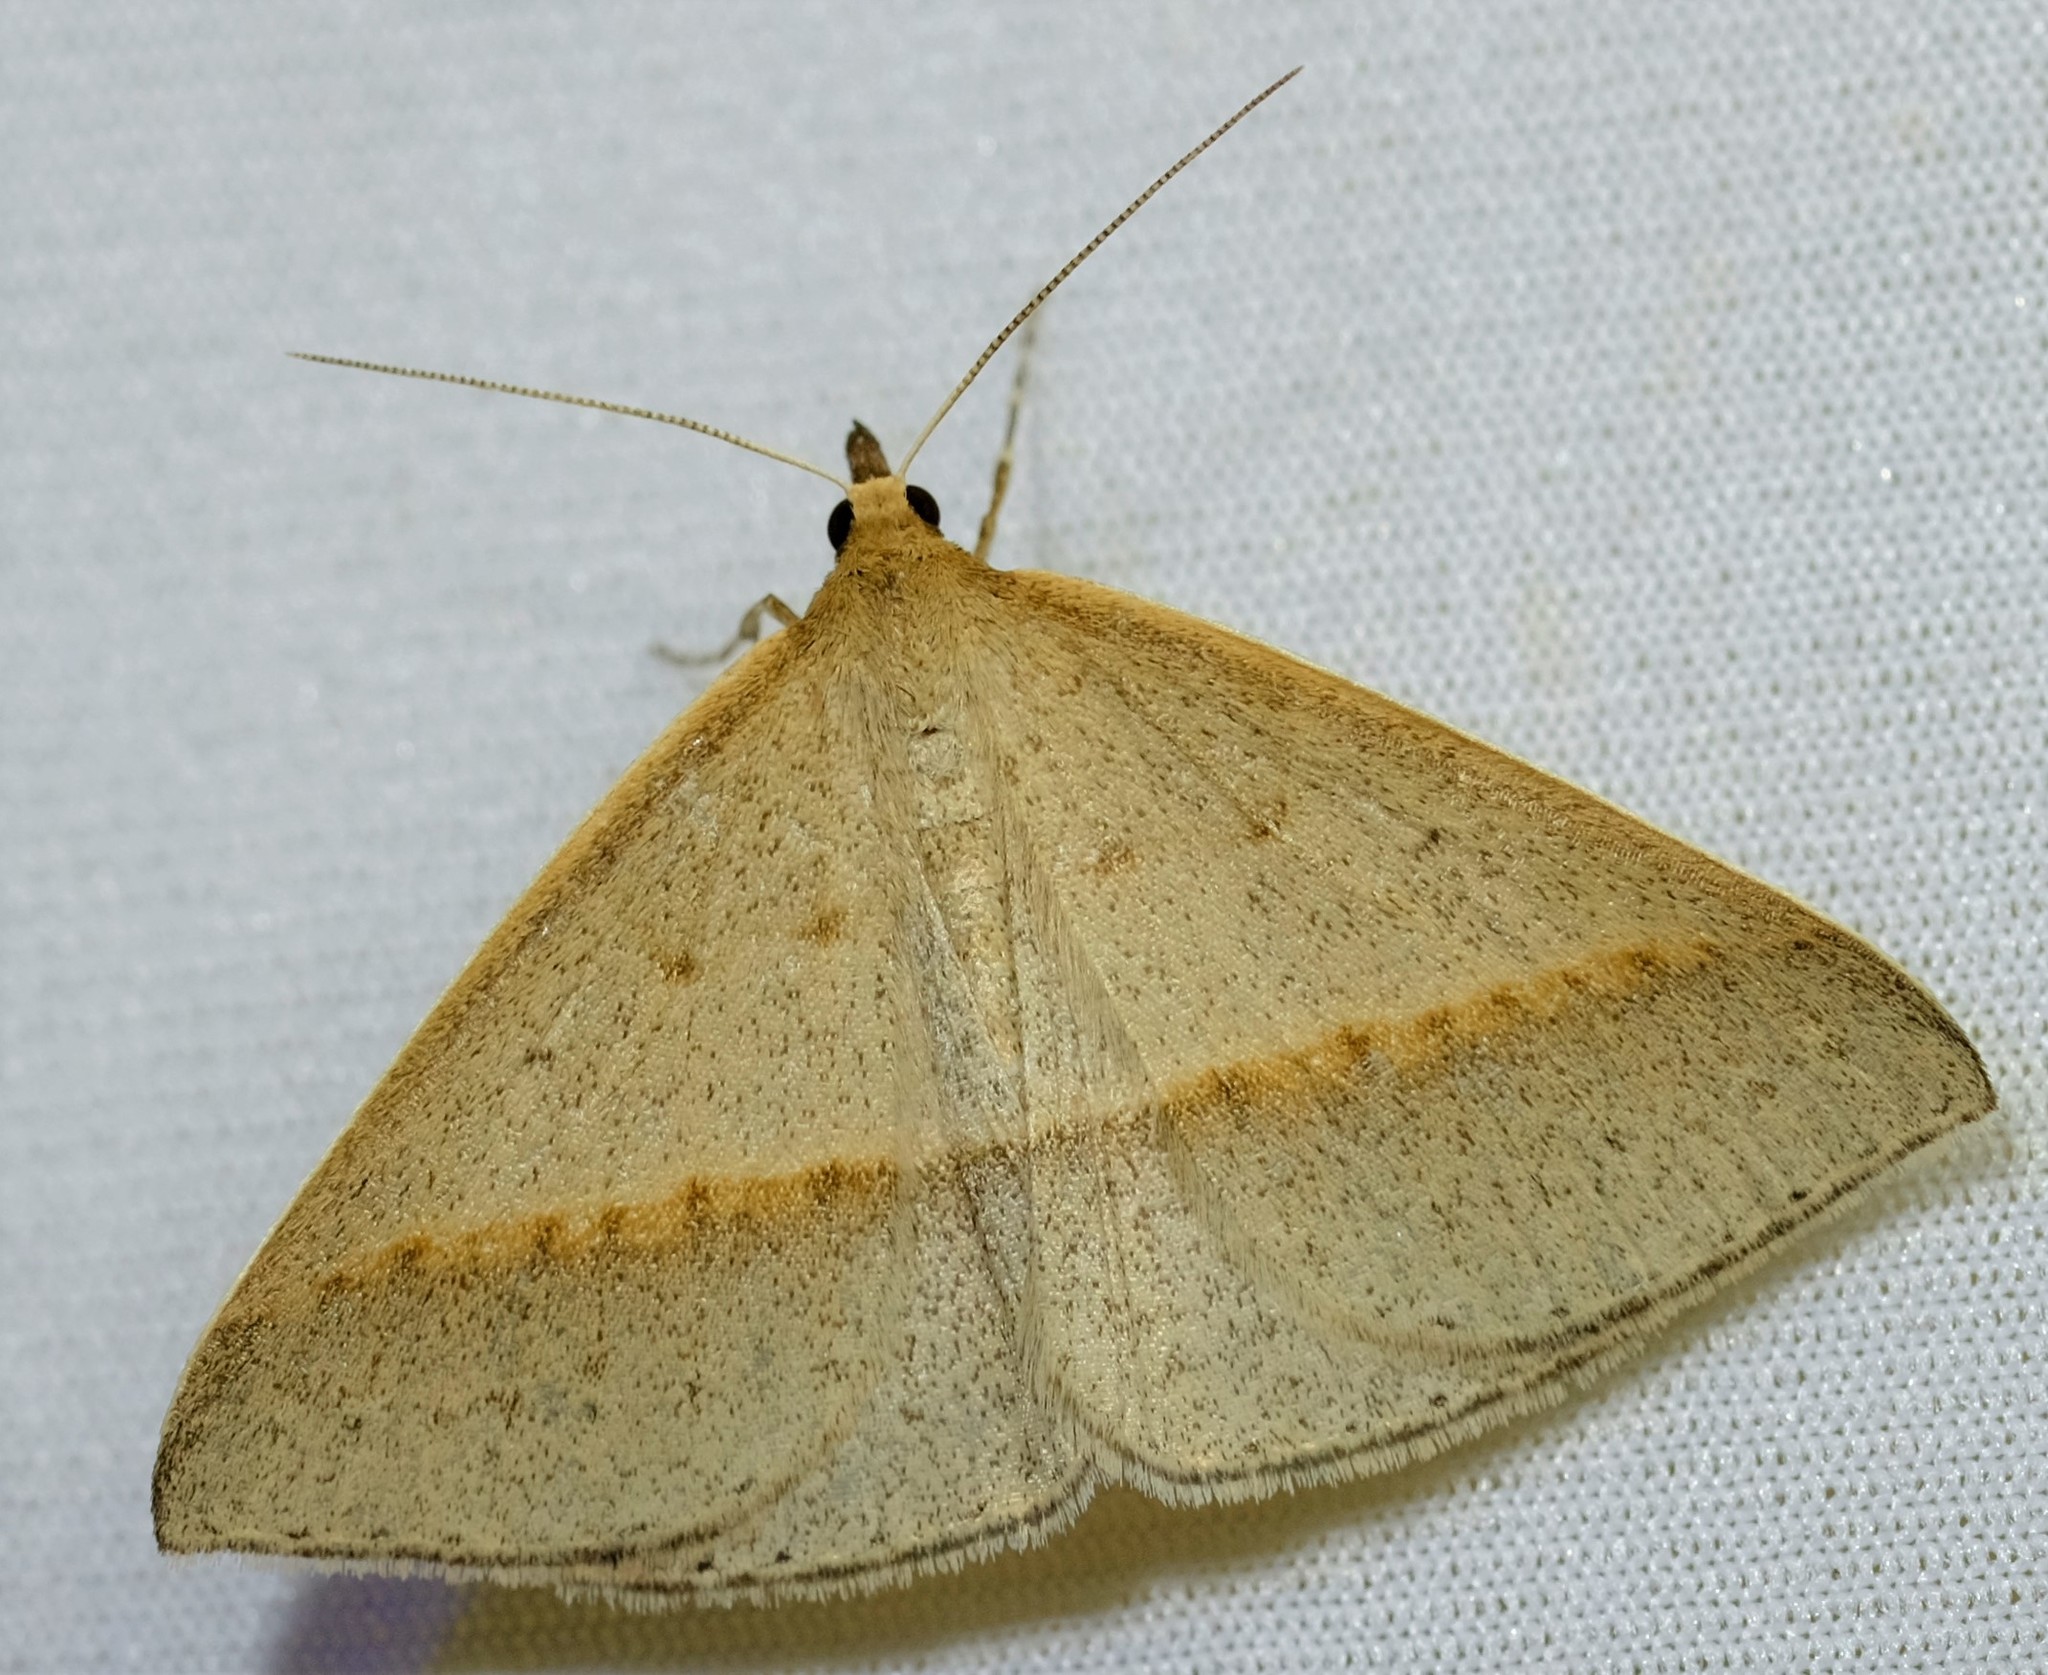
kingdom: Animalia
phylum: Arthropoda
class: Insecta
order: Lepidoptera
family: Geometridae
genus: Epidesmia
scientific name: Epidesmia tryxaria
